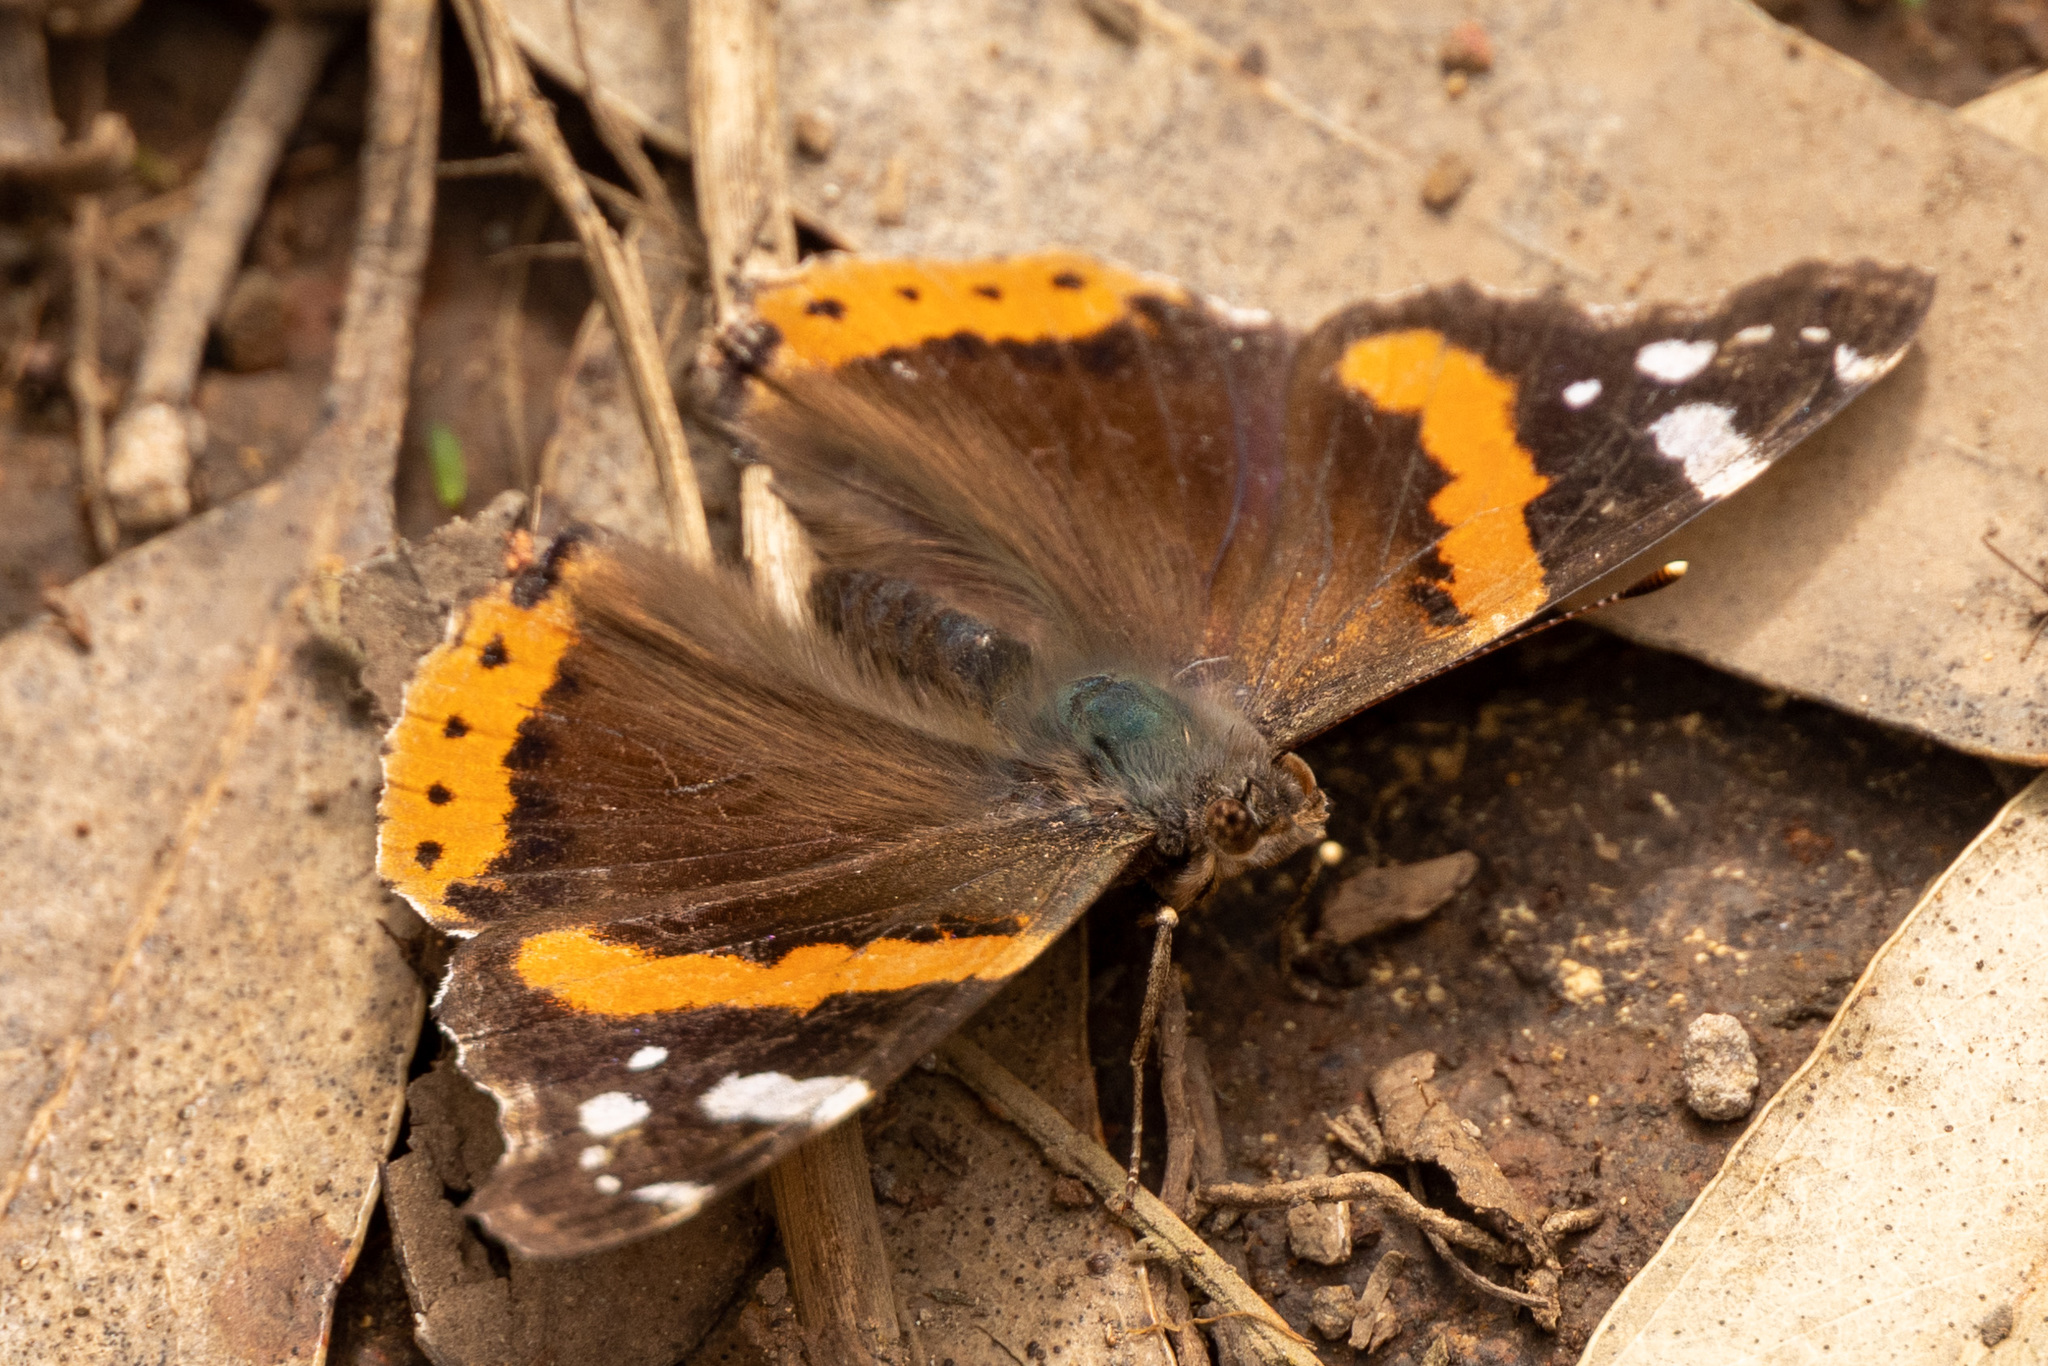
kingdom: Animalia
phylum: Arthropoda
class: Insecta
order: Lepidoptera
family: Nymphalidae
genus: Vanessa
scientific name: Vanessa atalanta
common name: Red admiral
